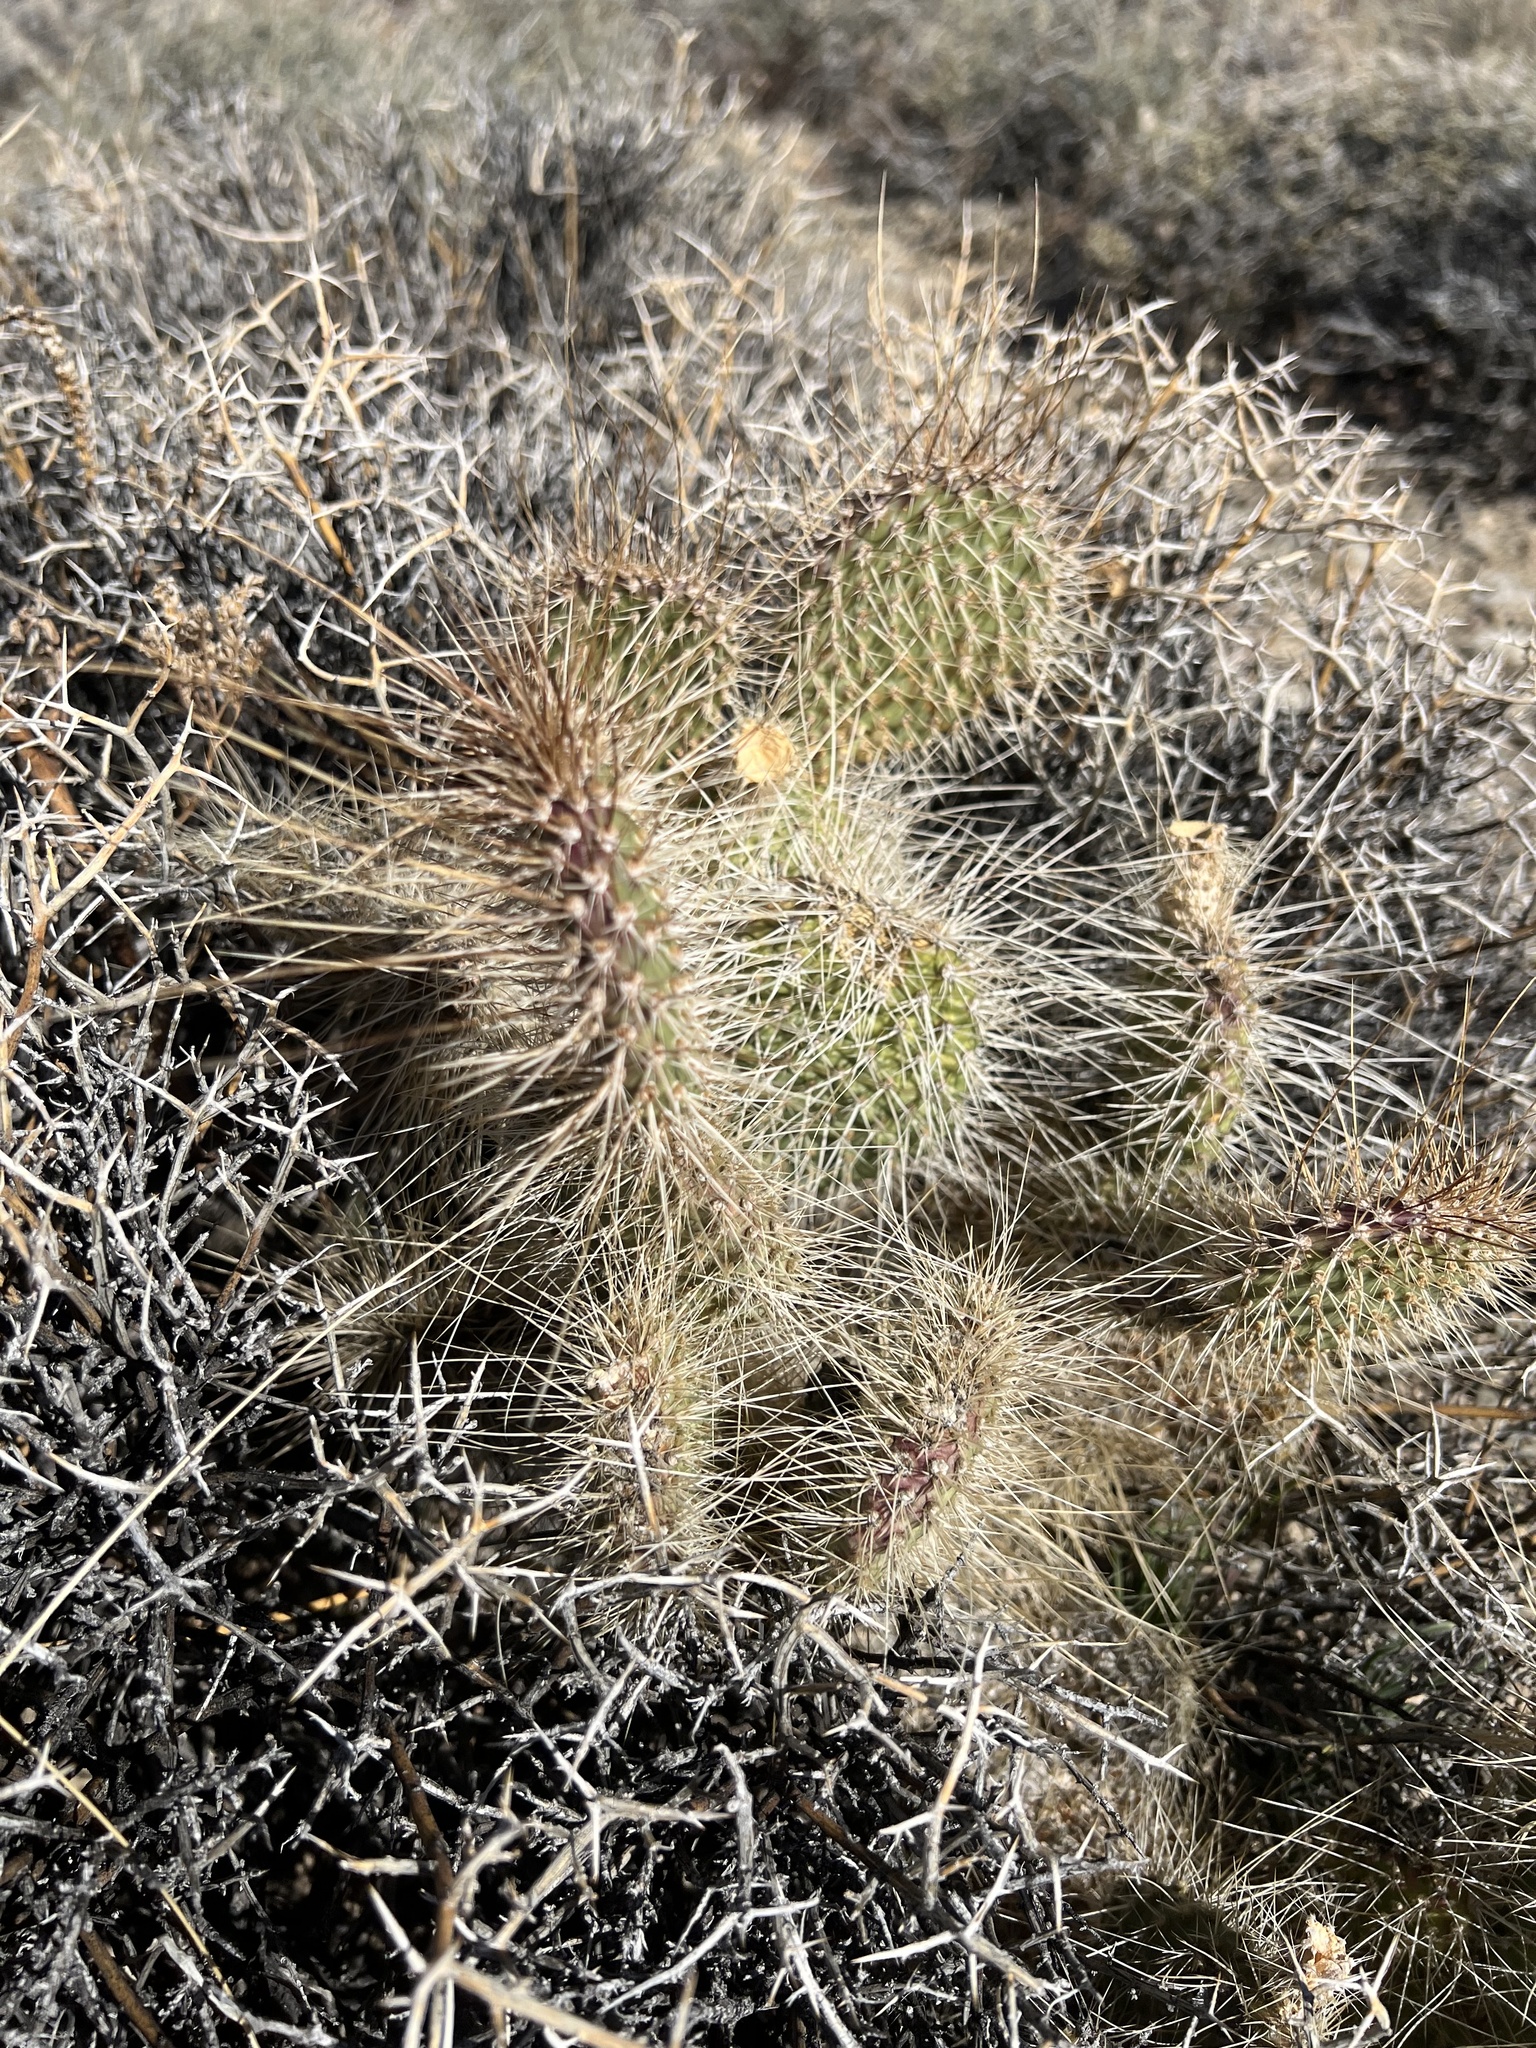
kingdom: Plantae
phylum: Tracheophyta
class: Magnoliopsida
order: Caryophyllales
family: Cactaceae
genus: Opuntia
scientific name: Opuntia polyacantha
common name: Plains prickly-pear
